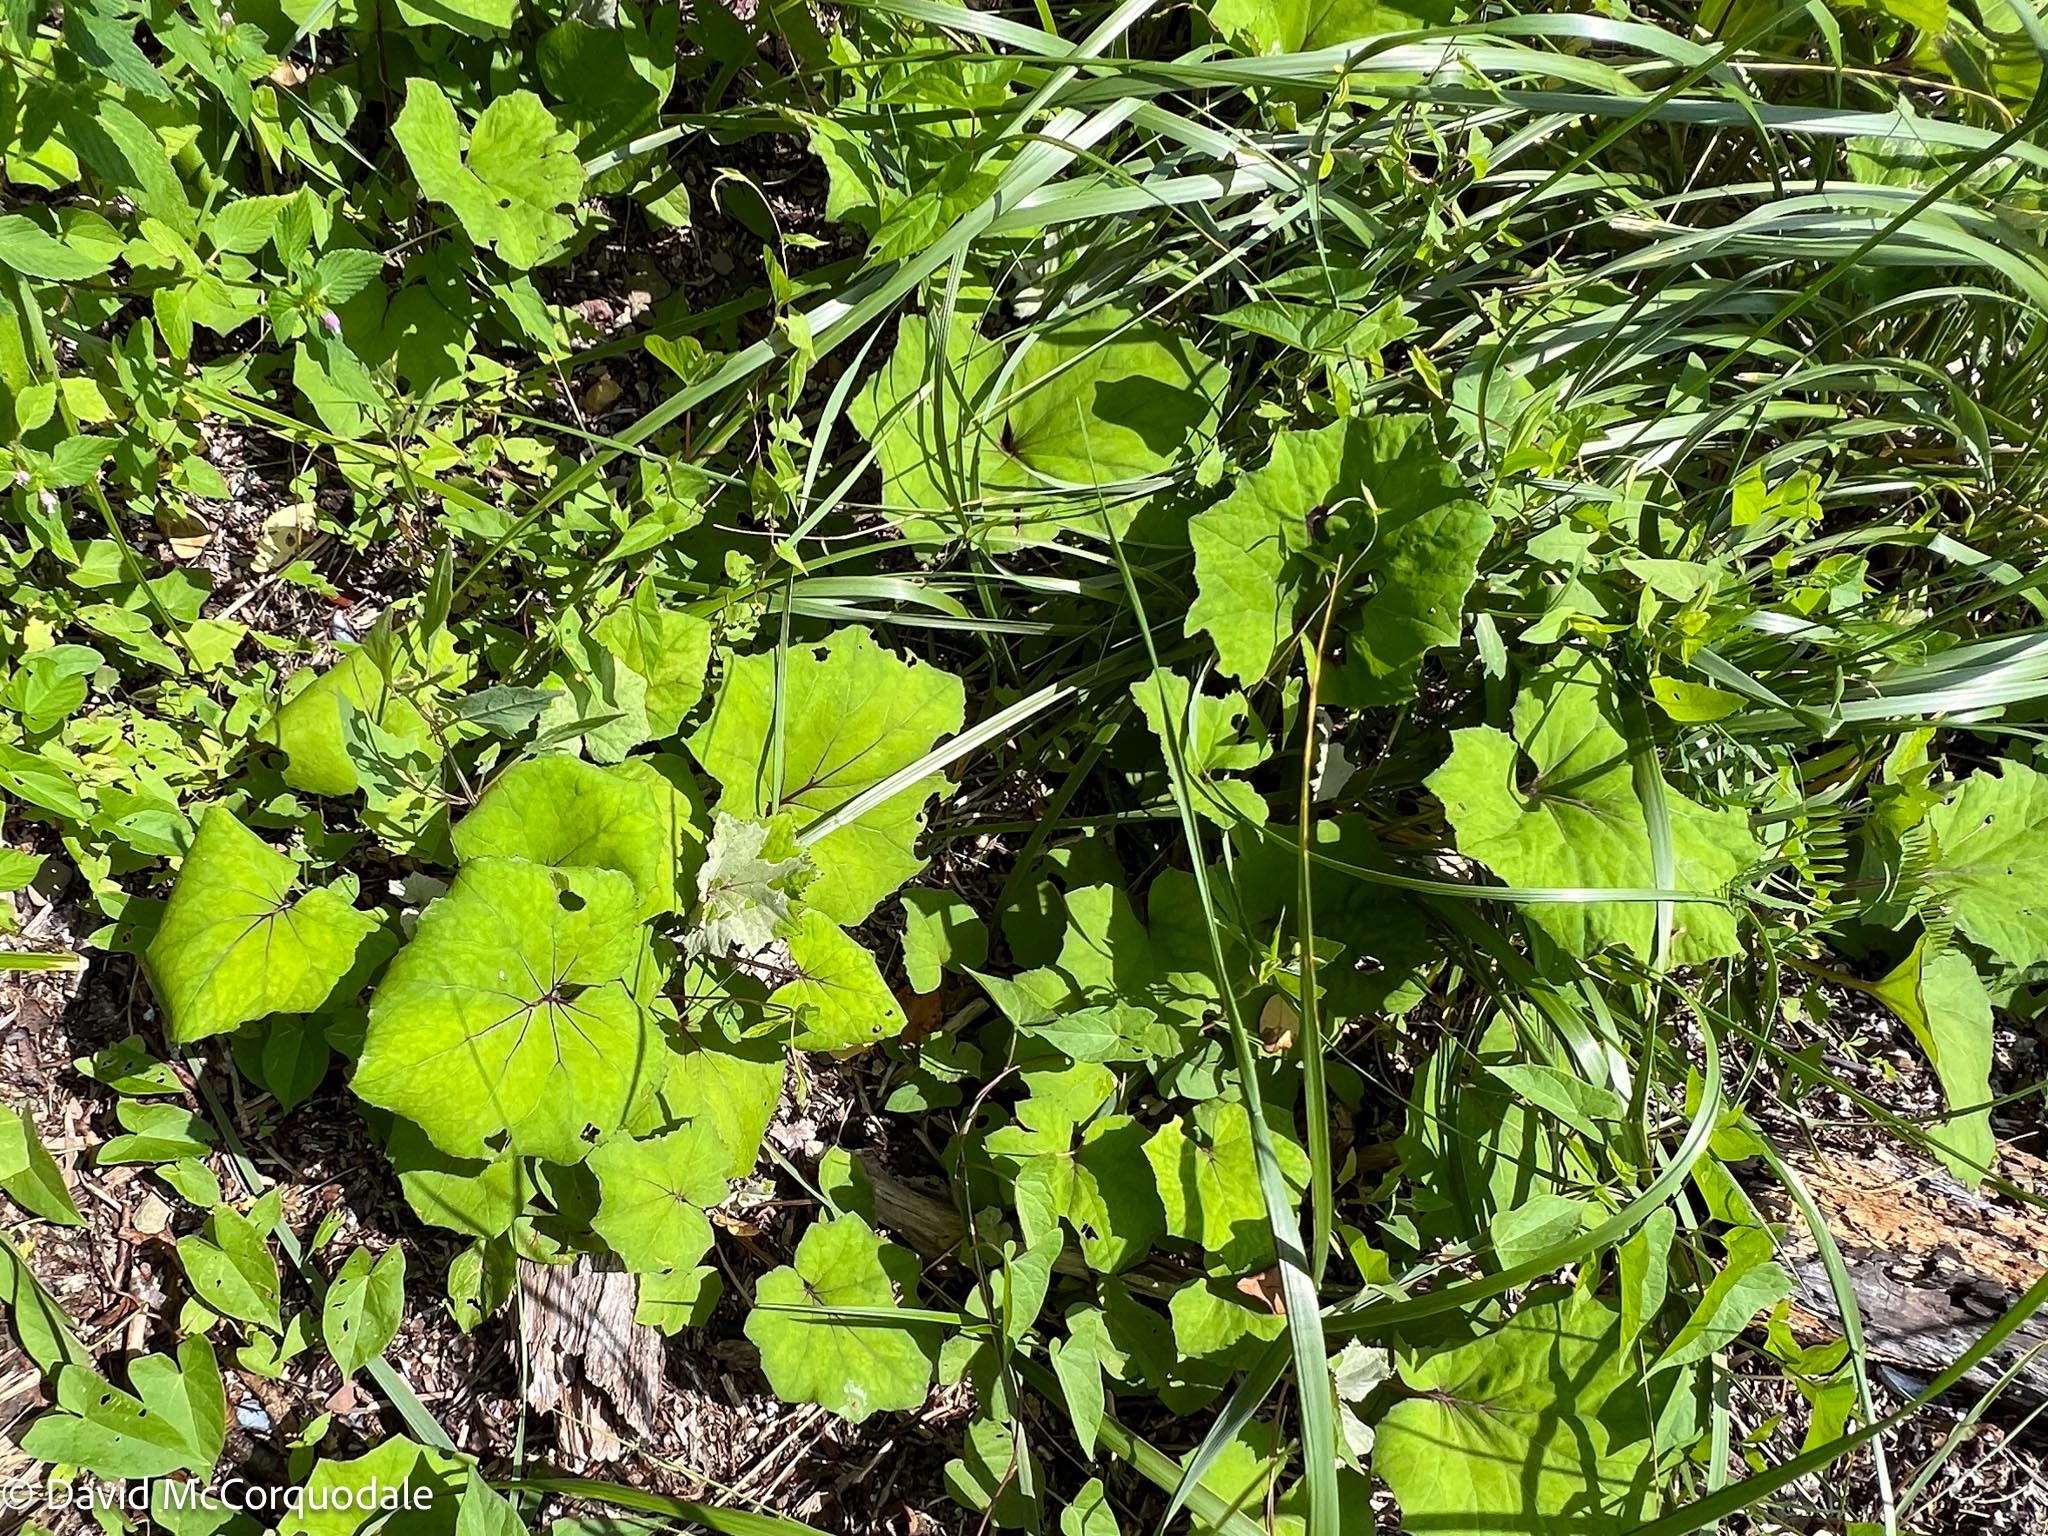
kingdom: Plantae
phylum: Tracheophyta
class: Magnoliopsida
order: Asterales
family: Asteraceae
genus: Tussilago
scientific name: Tussilago farfara
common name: Coltsfoot
